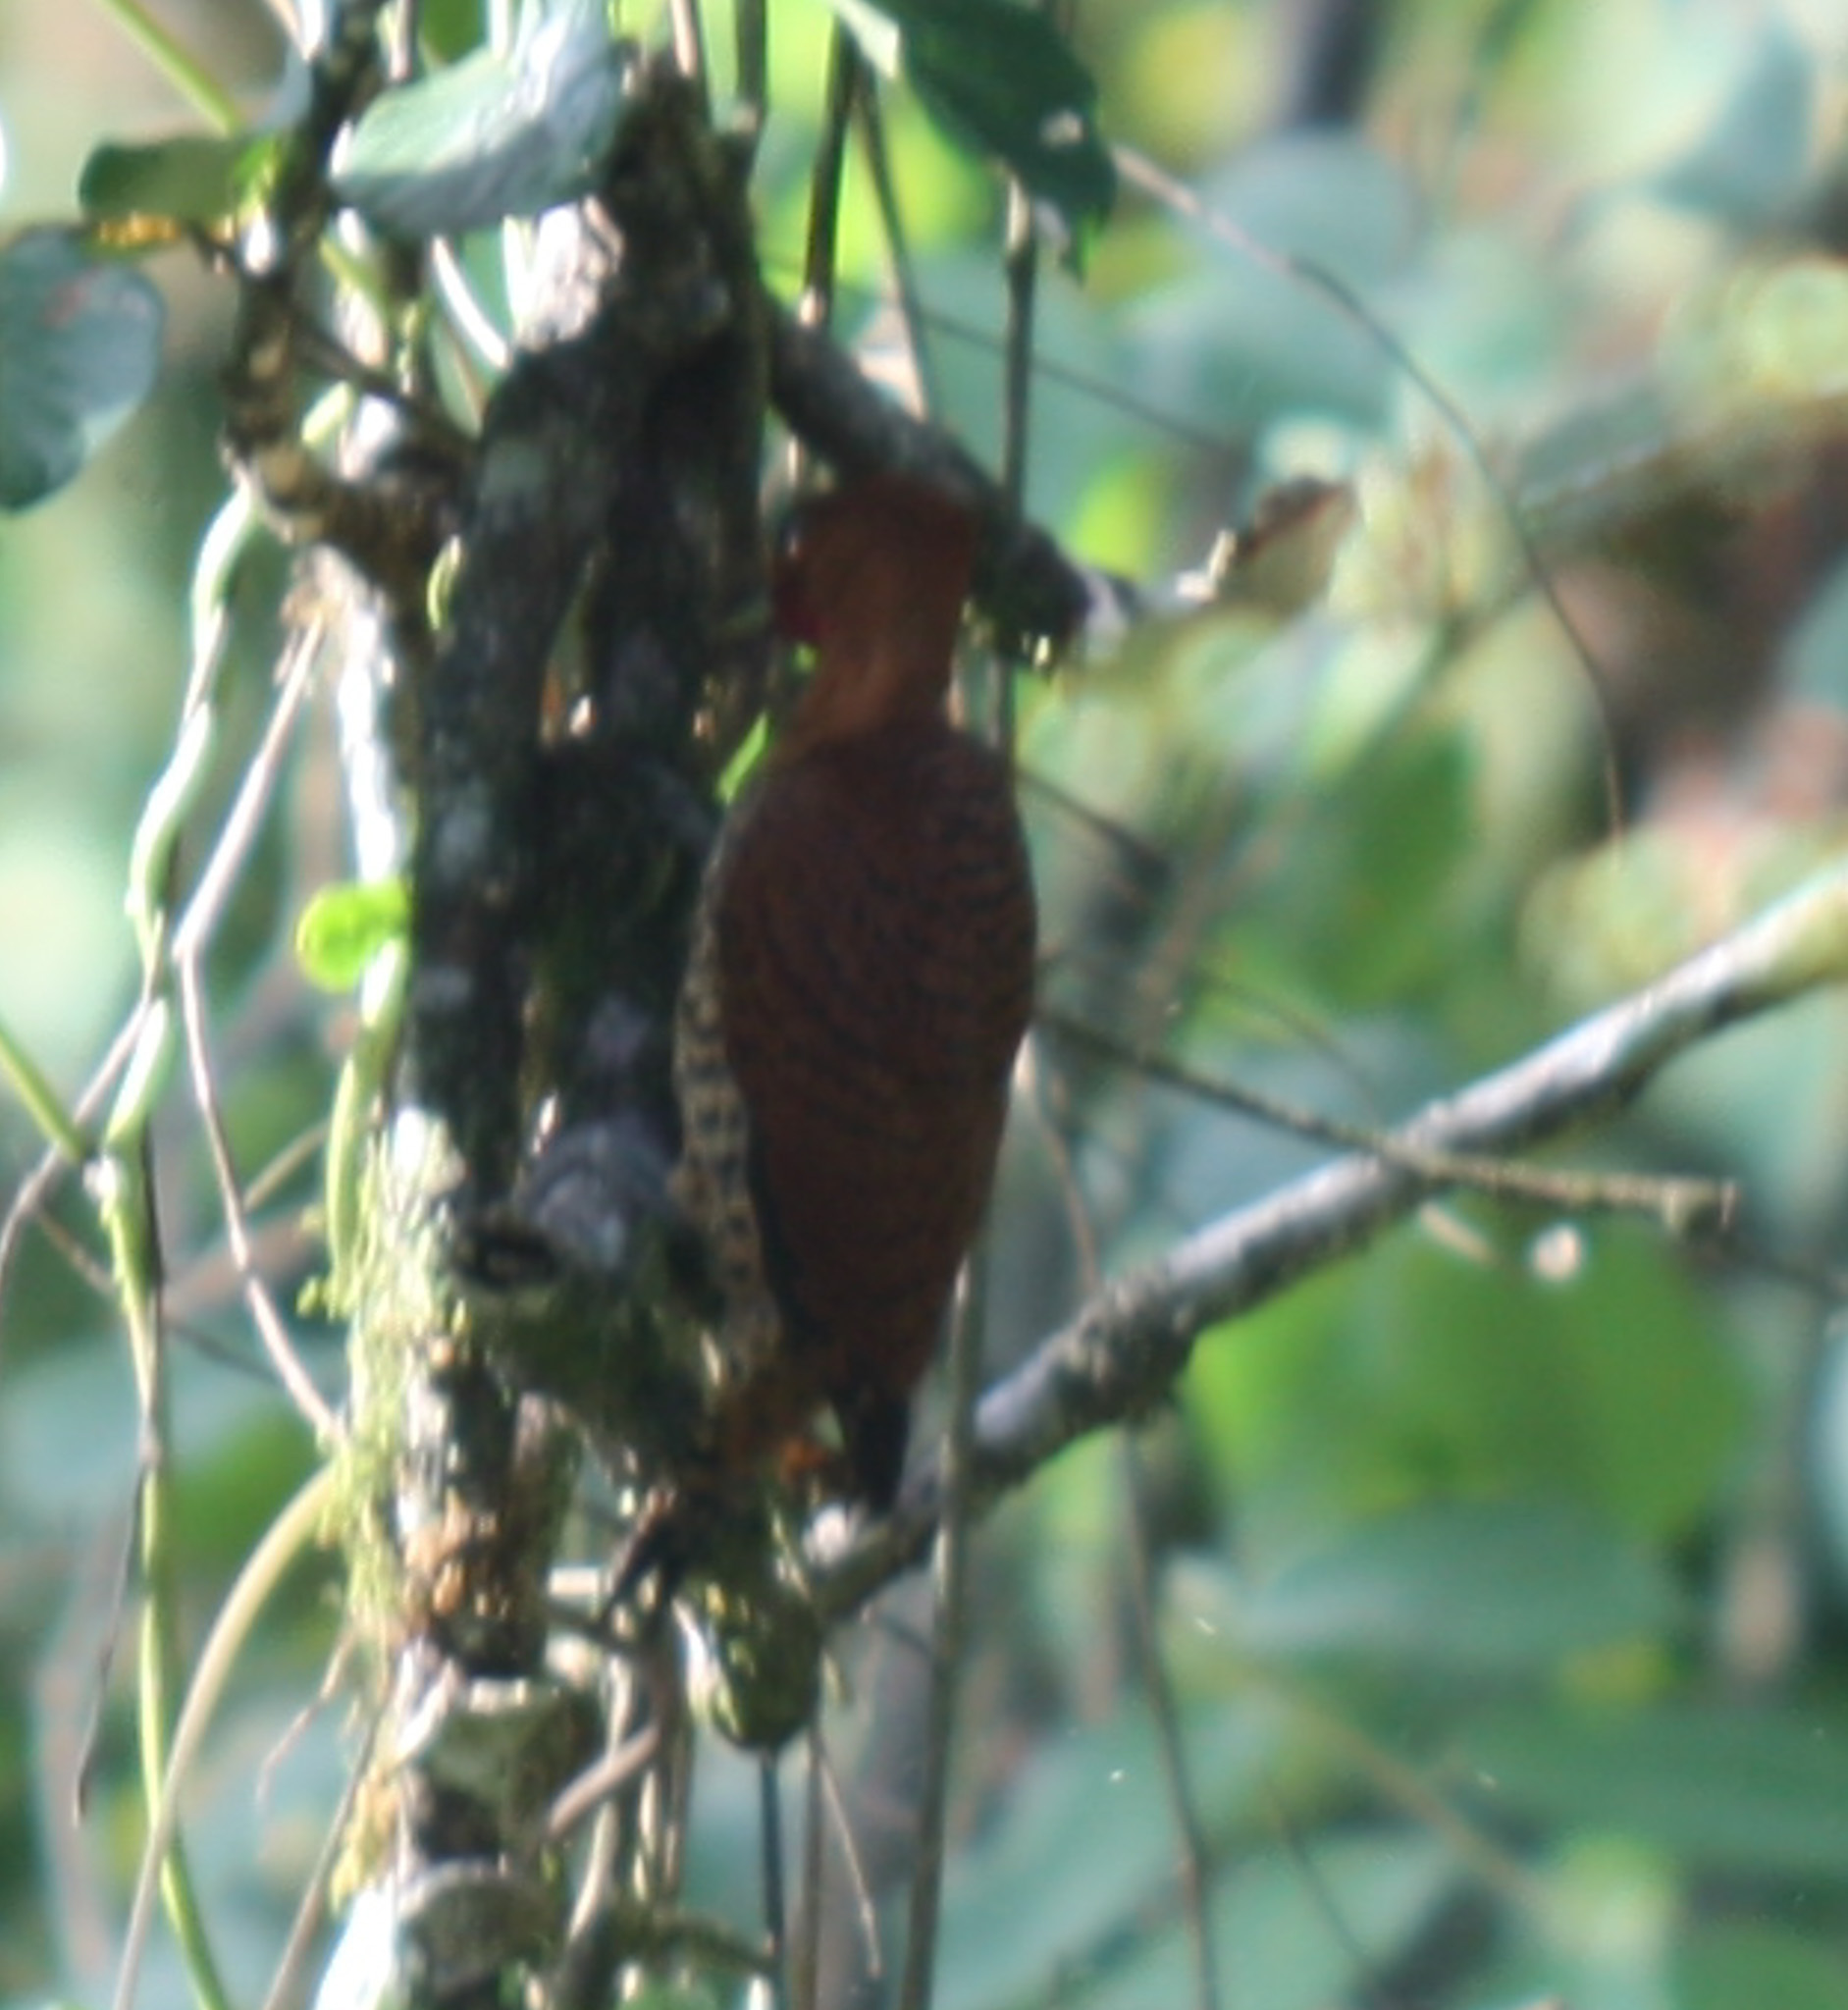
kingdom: Animalia
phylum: Chordata
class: Aves
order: Piciformes
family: Picidae
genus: Celeus
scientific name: Celeus loricatus
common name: Cinnamon woodpecker
